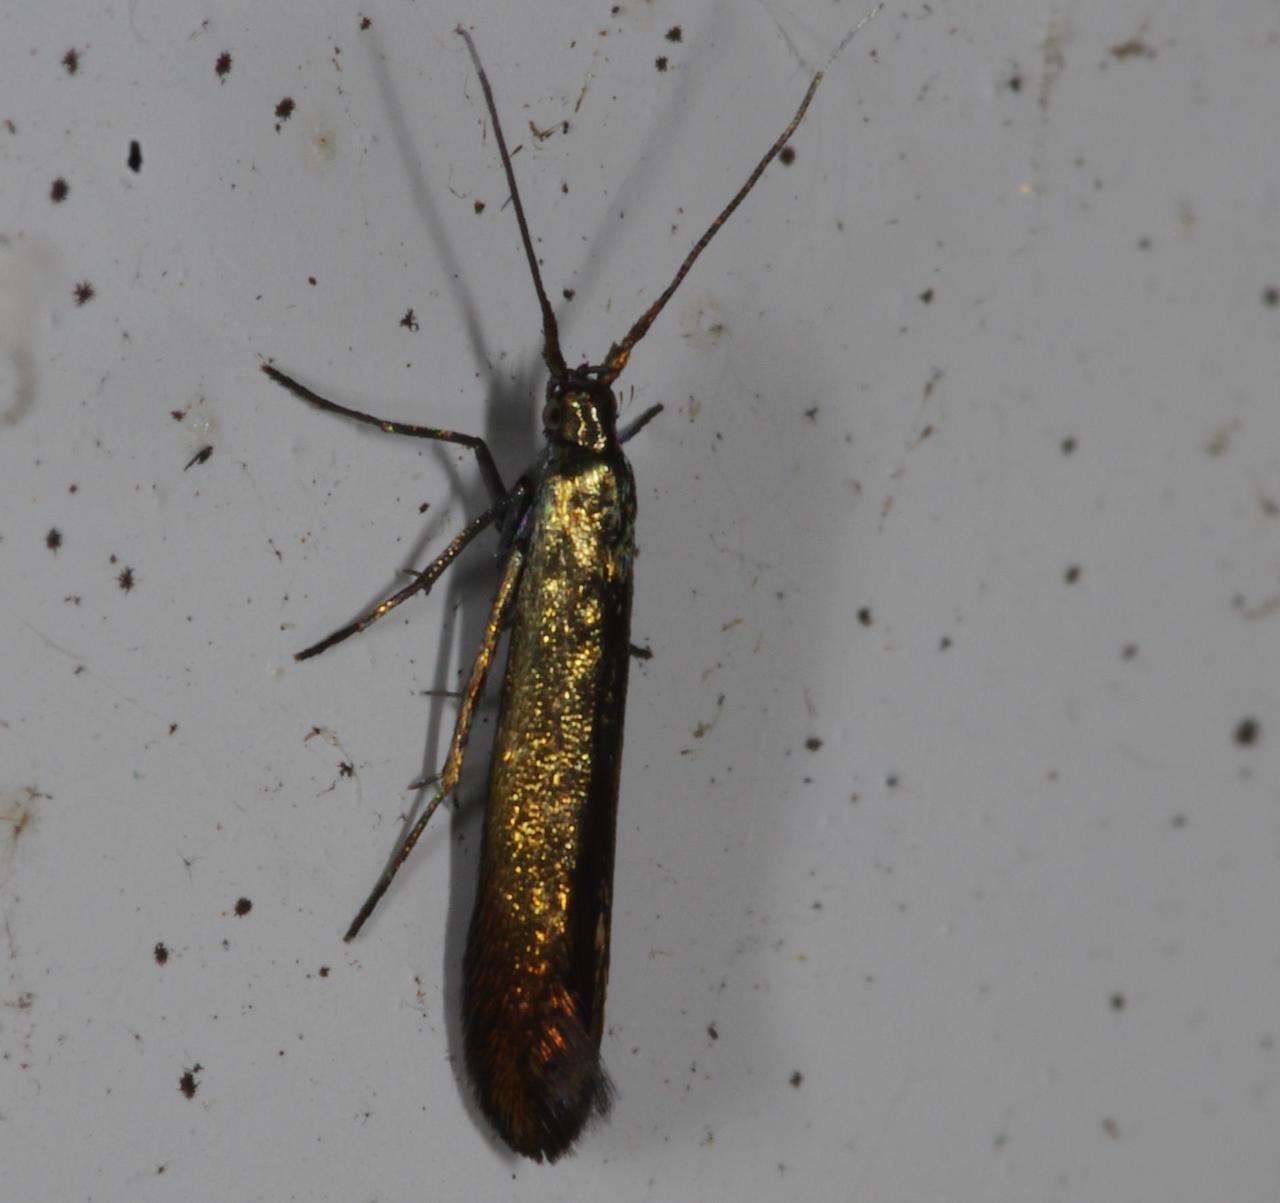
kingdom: Animalia
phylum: Arthropoda
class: Insecta
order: Lepidoptera
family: Coleophoridae
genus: Coleophora
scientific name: Coleophora alcyonipennella
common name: Clover case-bearer
